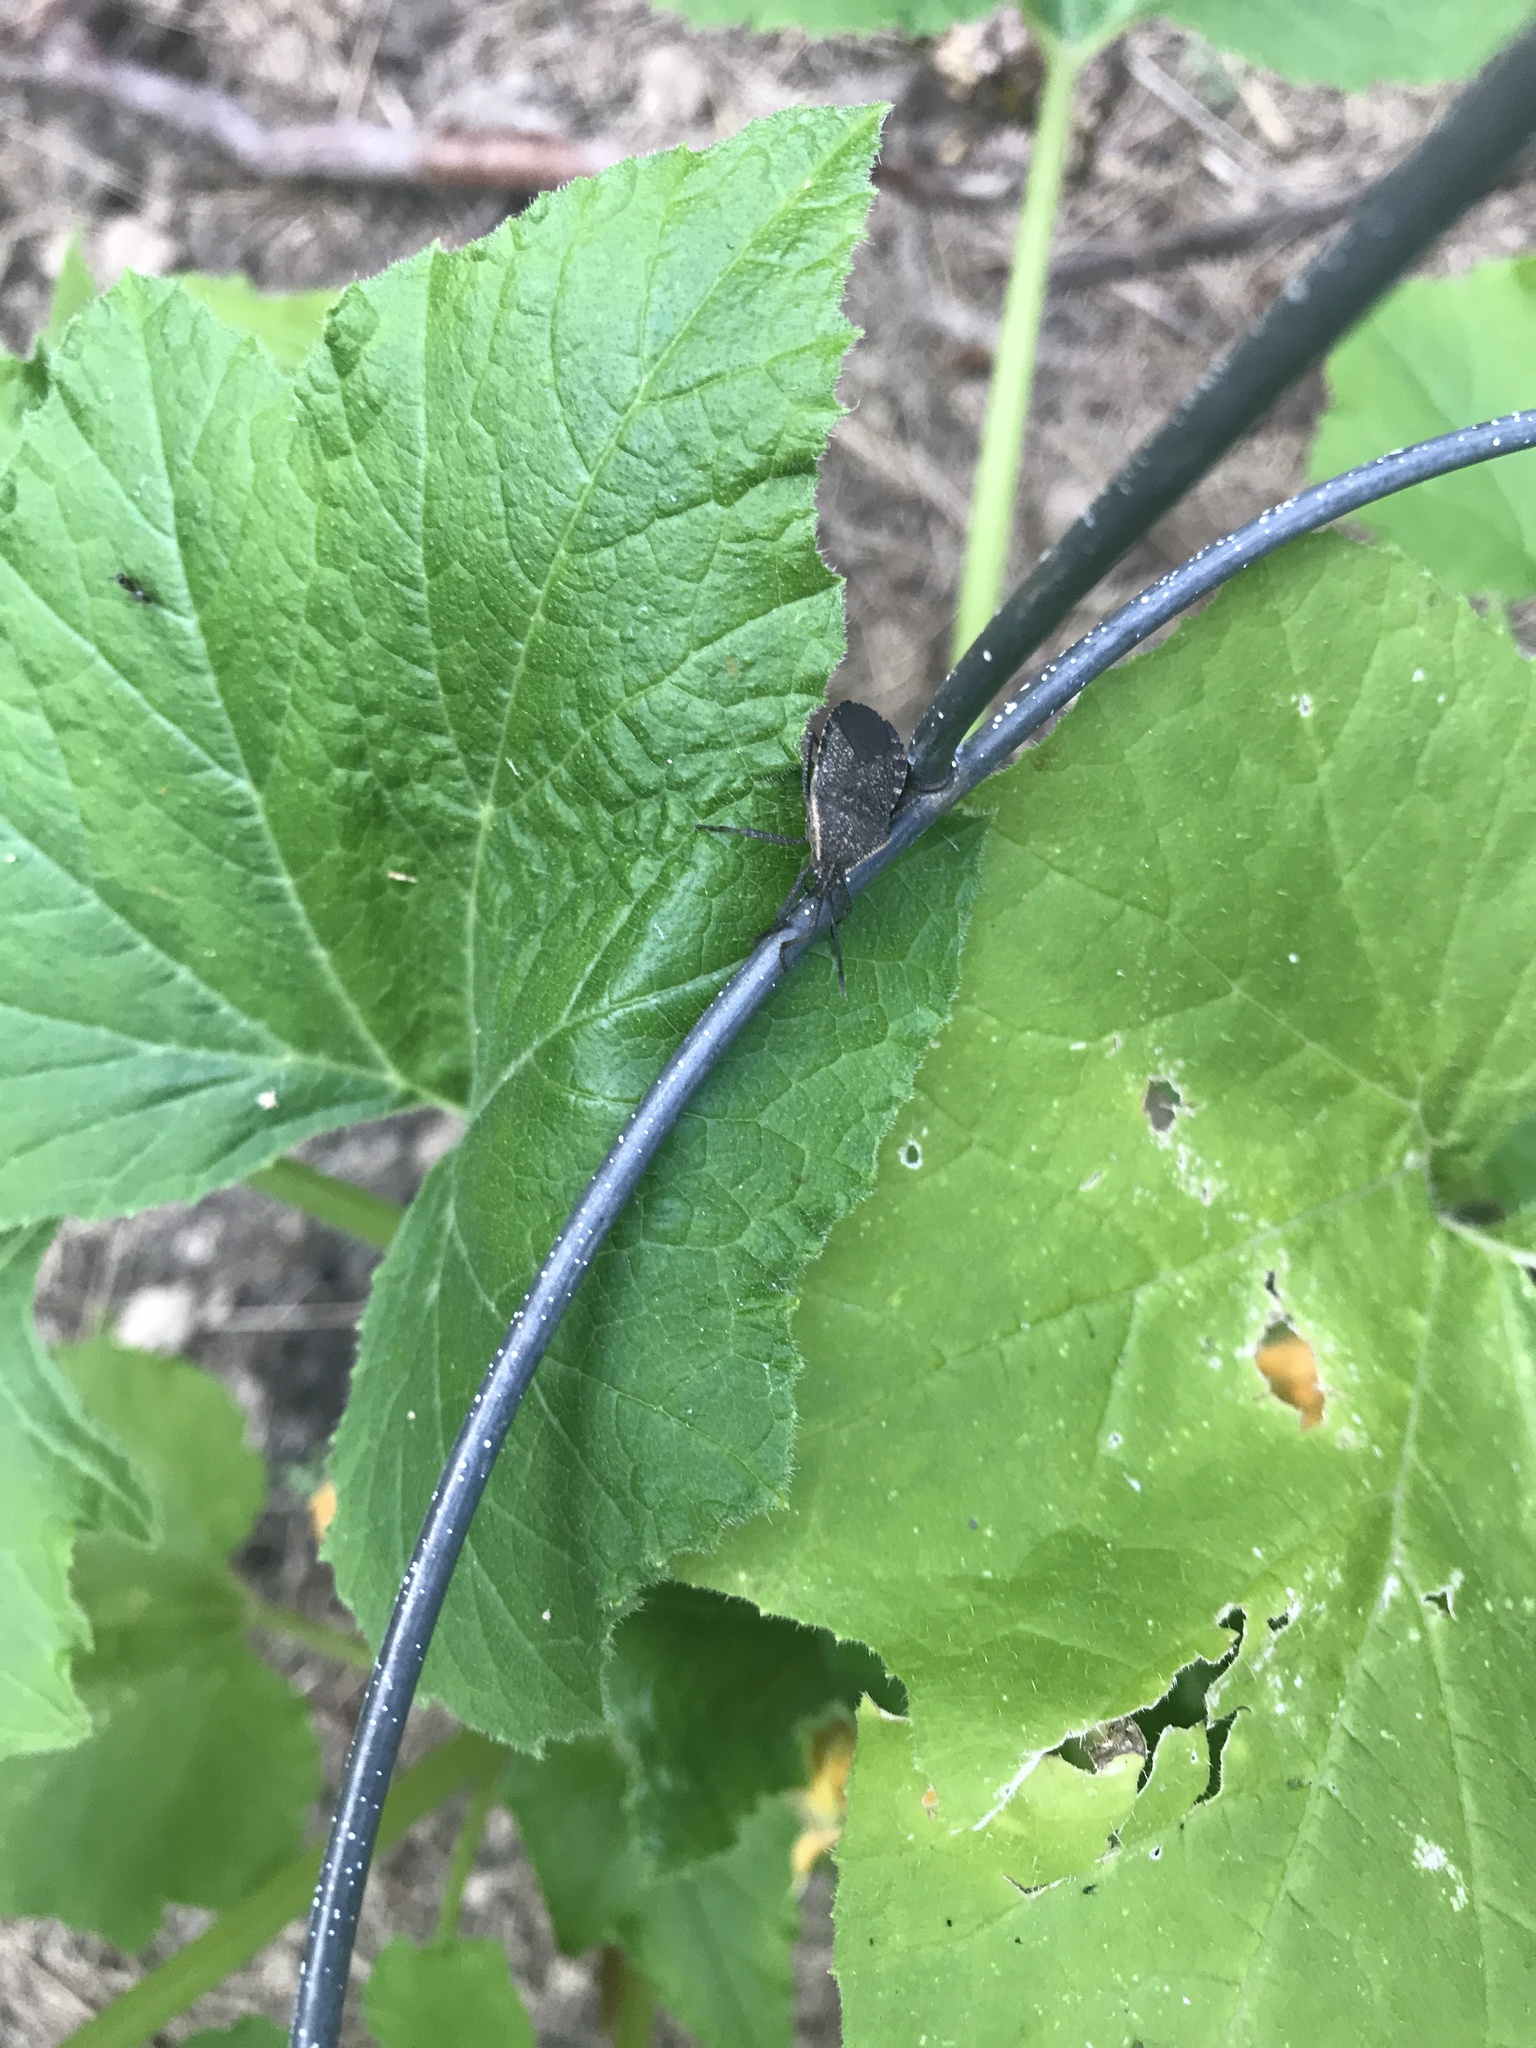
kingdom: Animalia
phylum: Arthropoda
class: Insecta
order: Hemiptera
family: Coreidae
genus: Anasa
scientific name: Anasa tristis
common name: Squash bug
